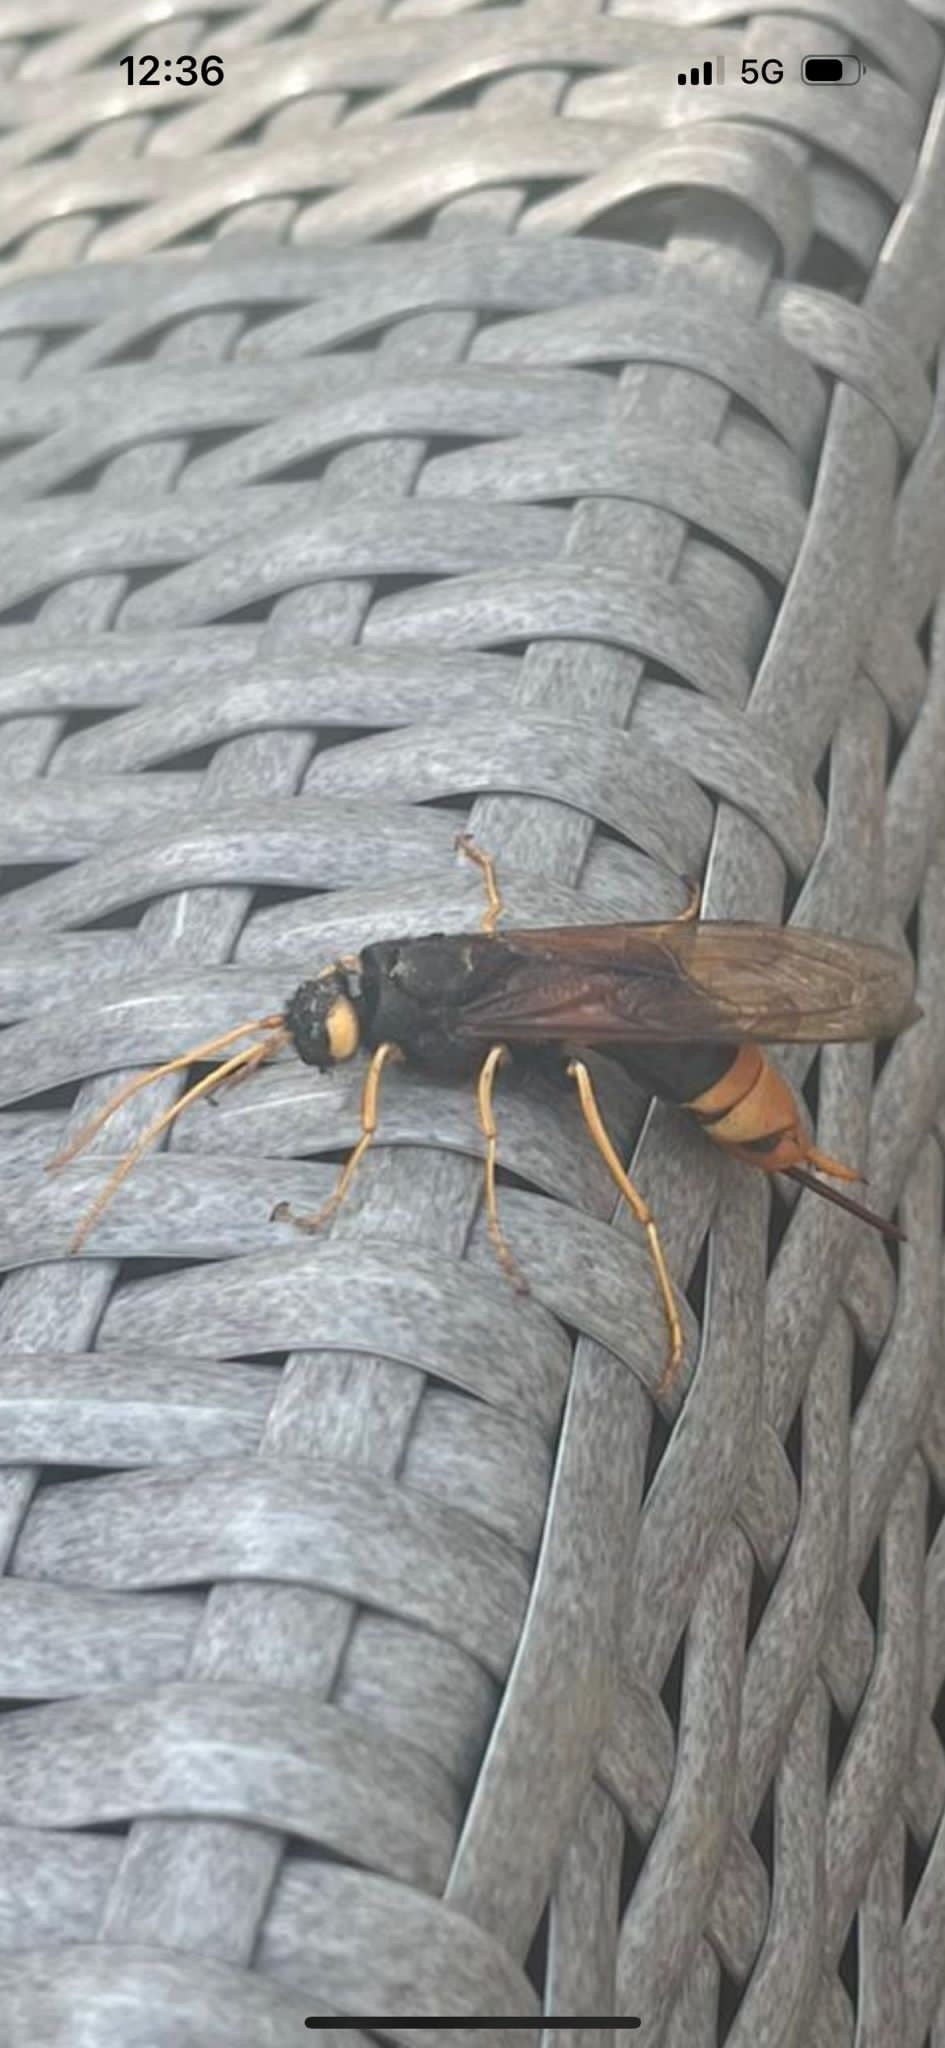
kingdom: Animalia
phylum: Arthropoda
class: Insecta
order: Hymenoptera
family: Siricidae
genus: Urocerus
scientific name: Urocerus gigas
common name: Giant woodwasp
